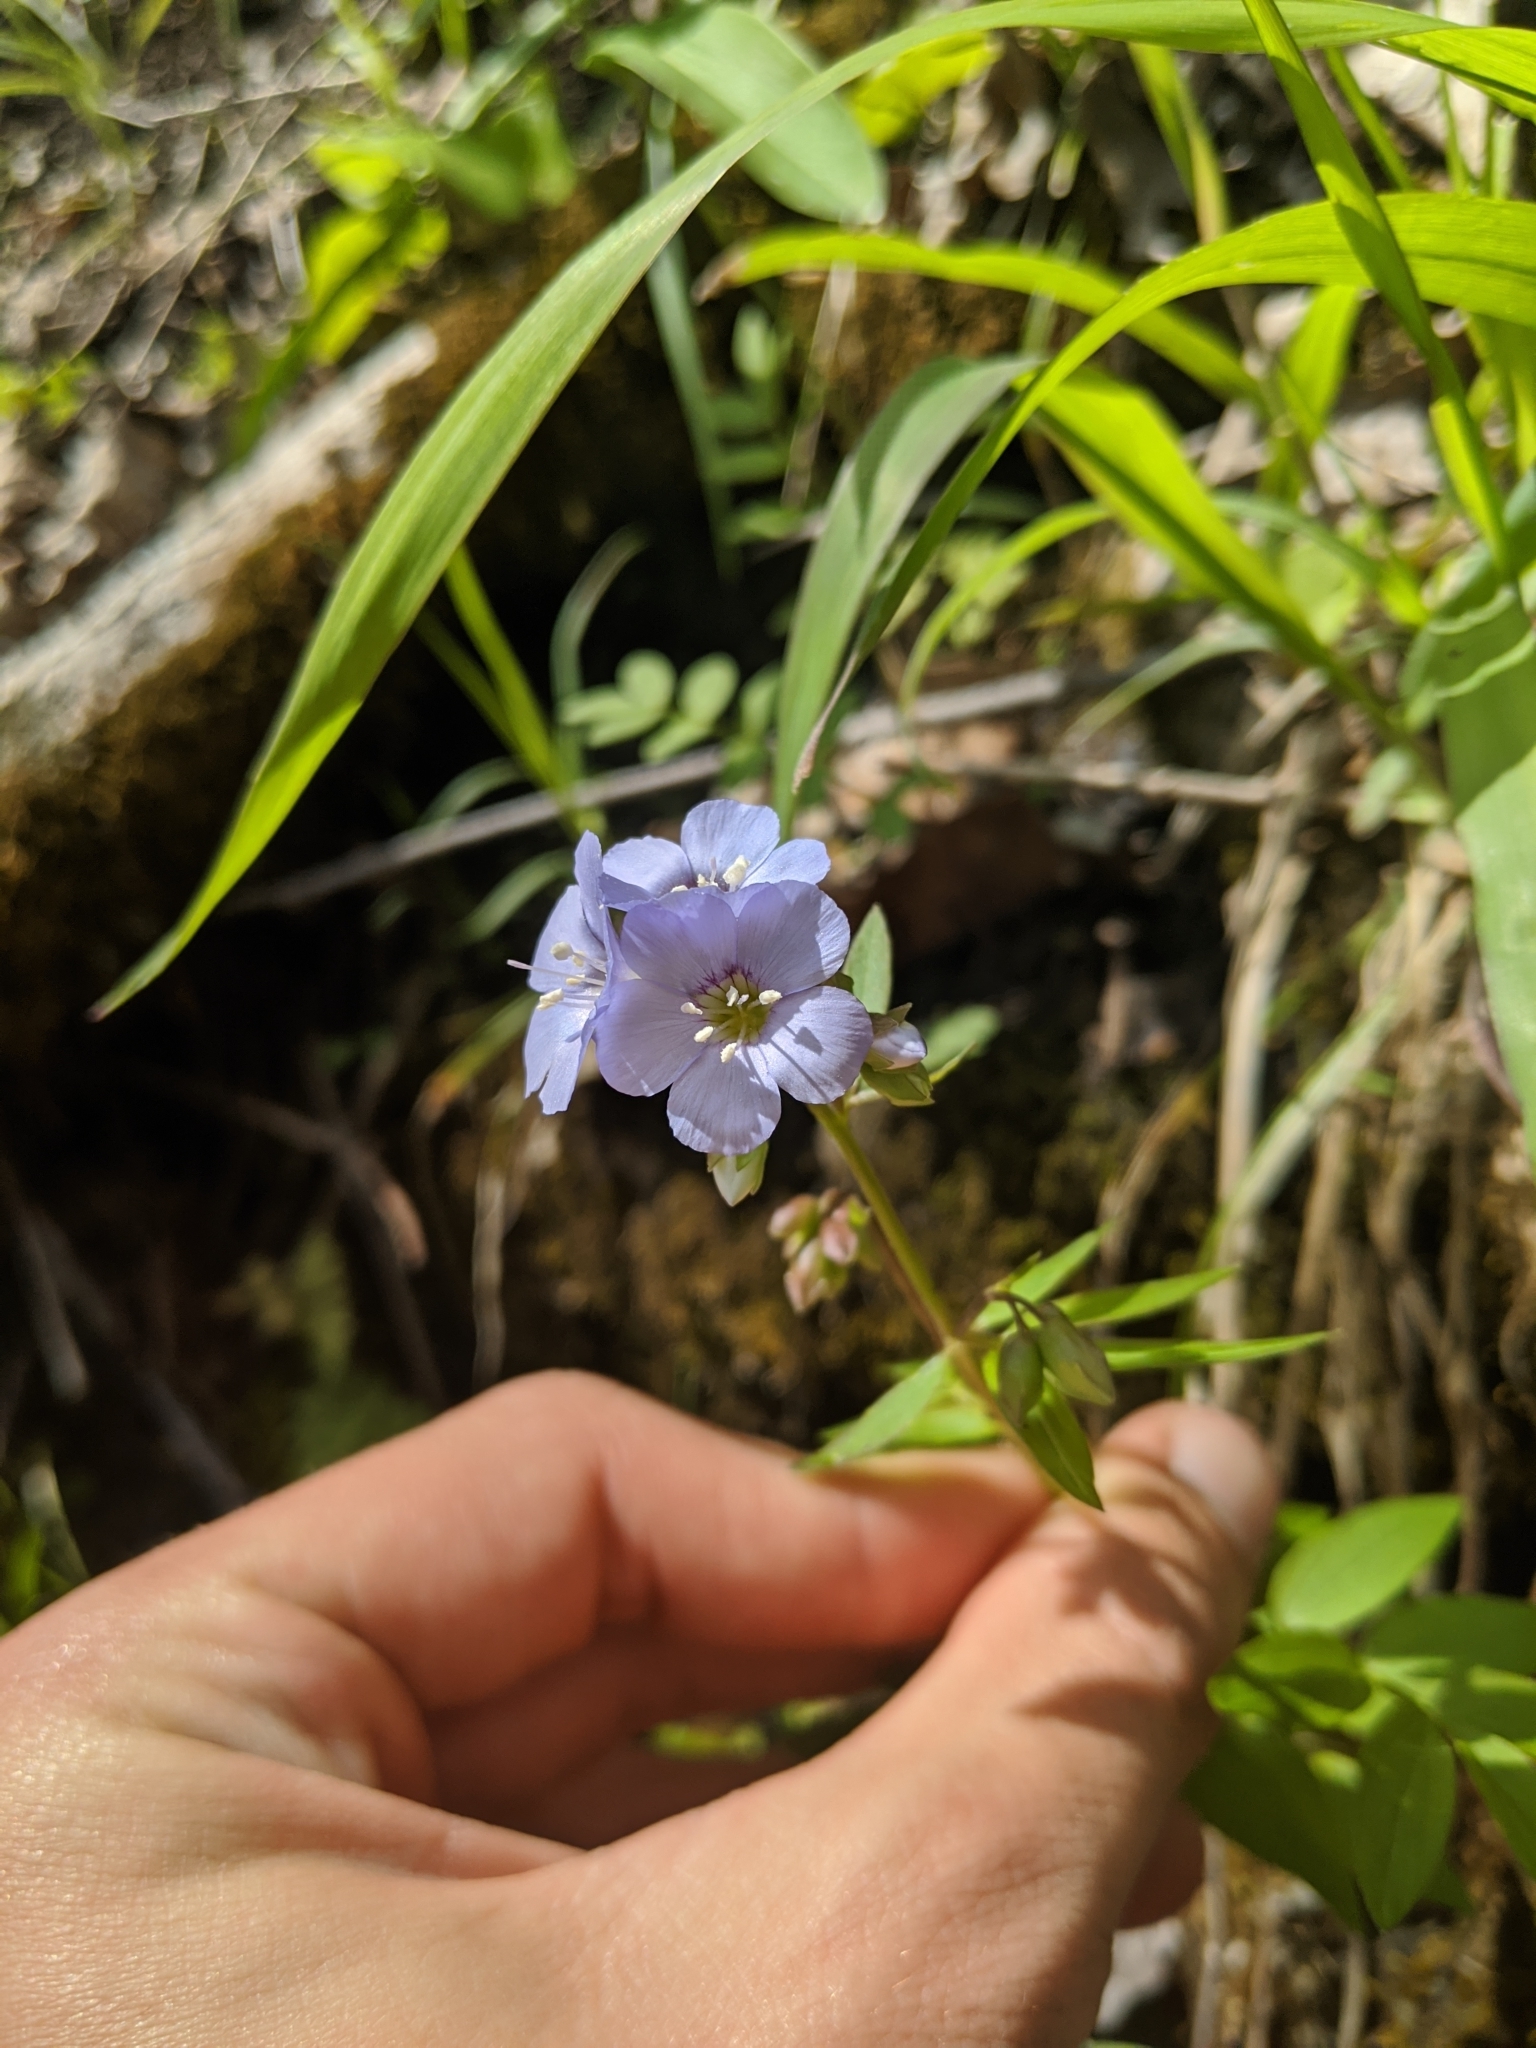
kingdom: Plantae
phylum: Tracheophyta
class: Magnoliopsida
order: Ericales
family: Polemoniaceae
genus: Polemonium
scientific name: Polemonium reptans
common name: Creeping jacob's-ladder
